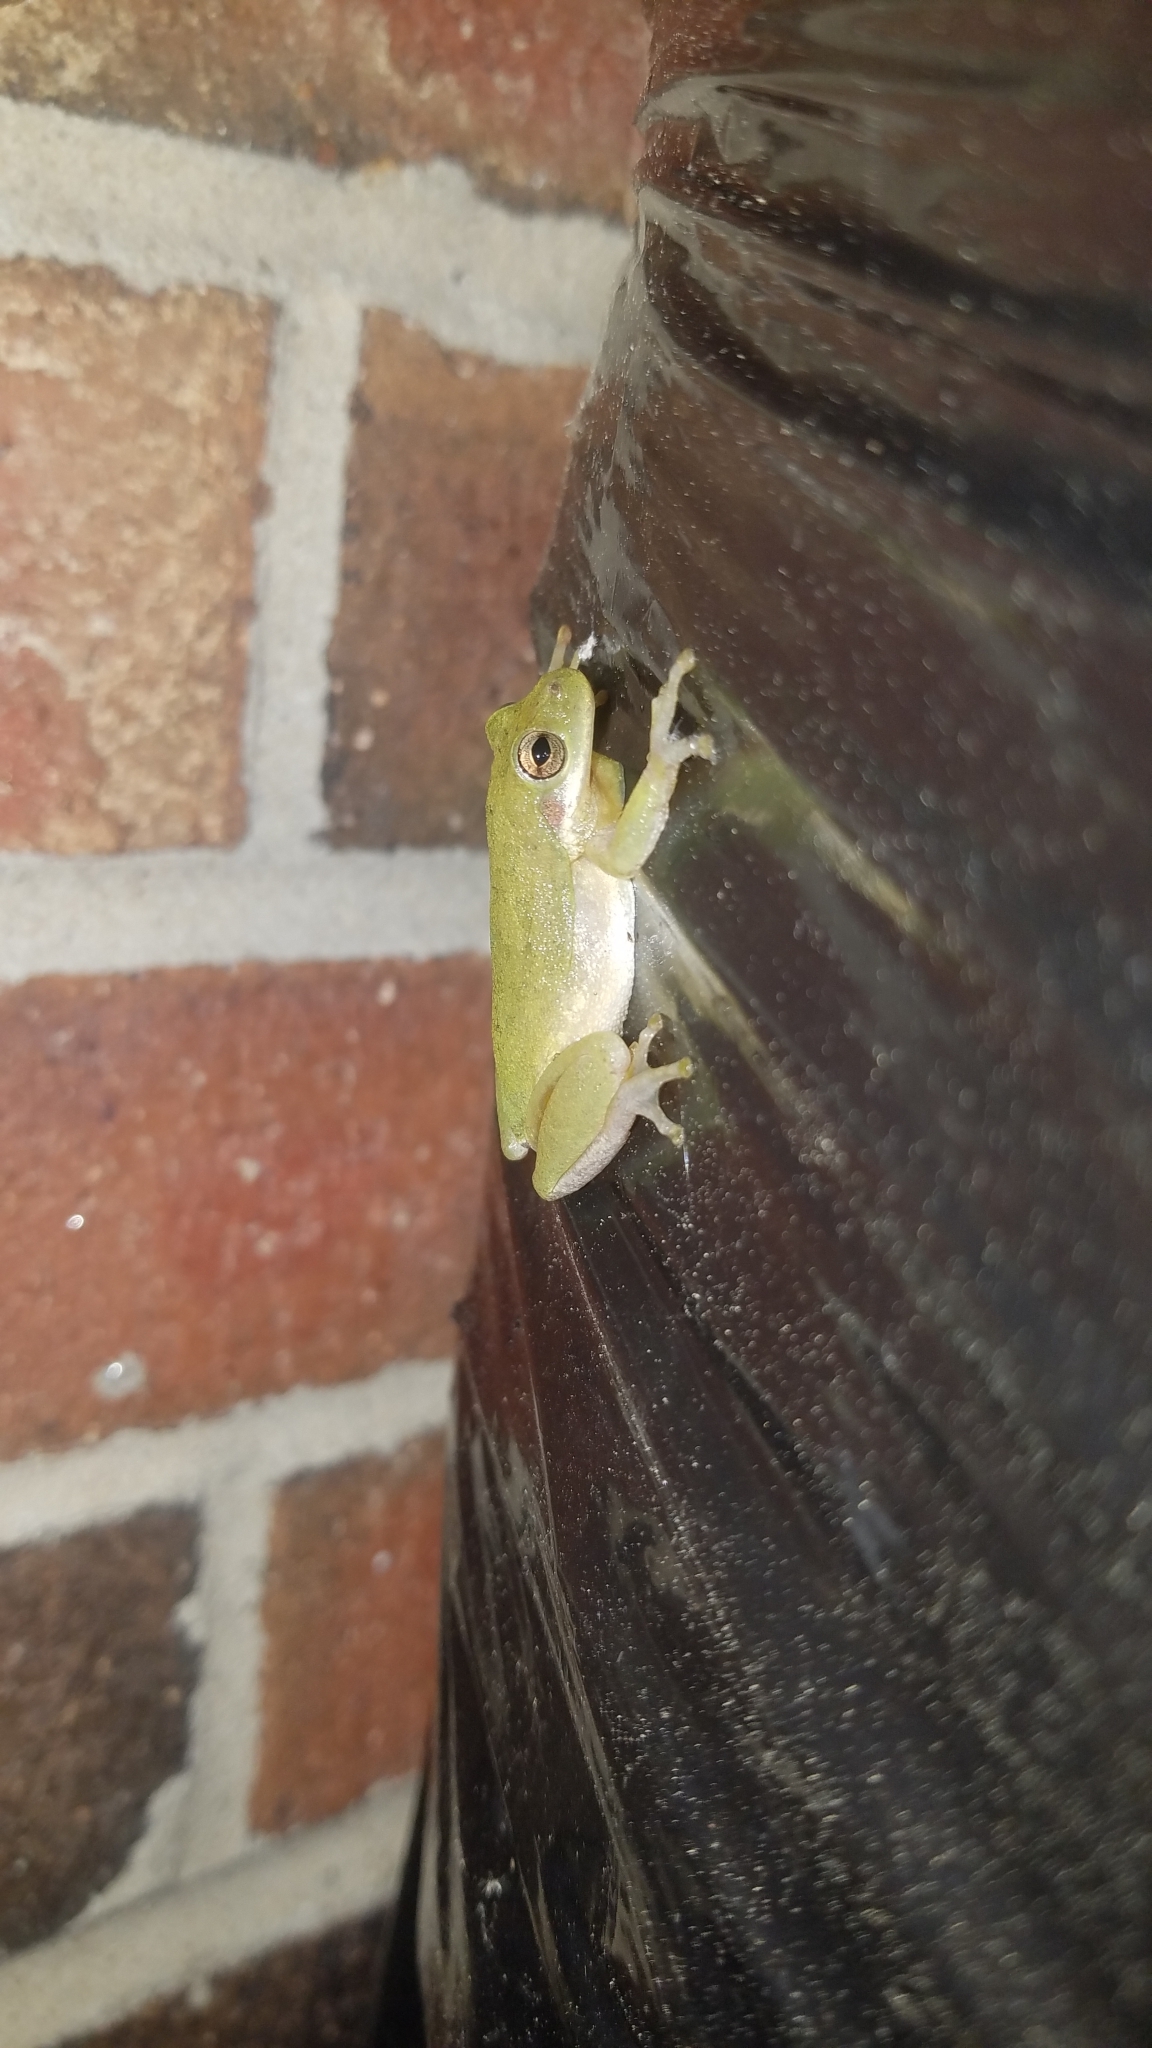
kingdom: Animalia
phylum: Chordata
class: Amphibia
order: Anura
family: Hylidae
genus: Dryophytes
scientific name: Dryophytes squirellus
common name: Squirrel treefrog
